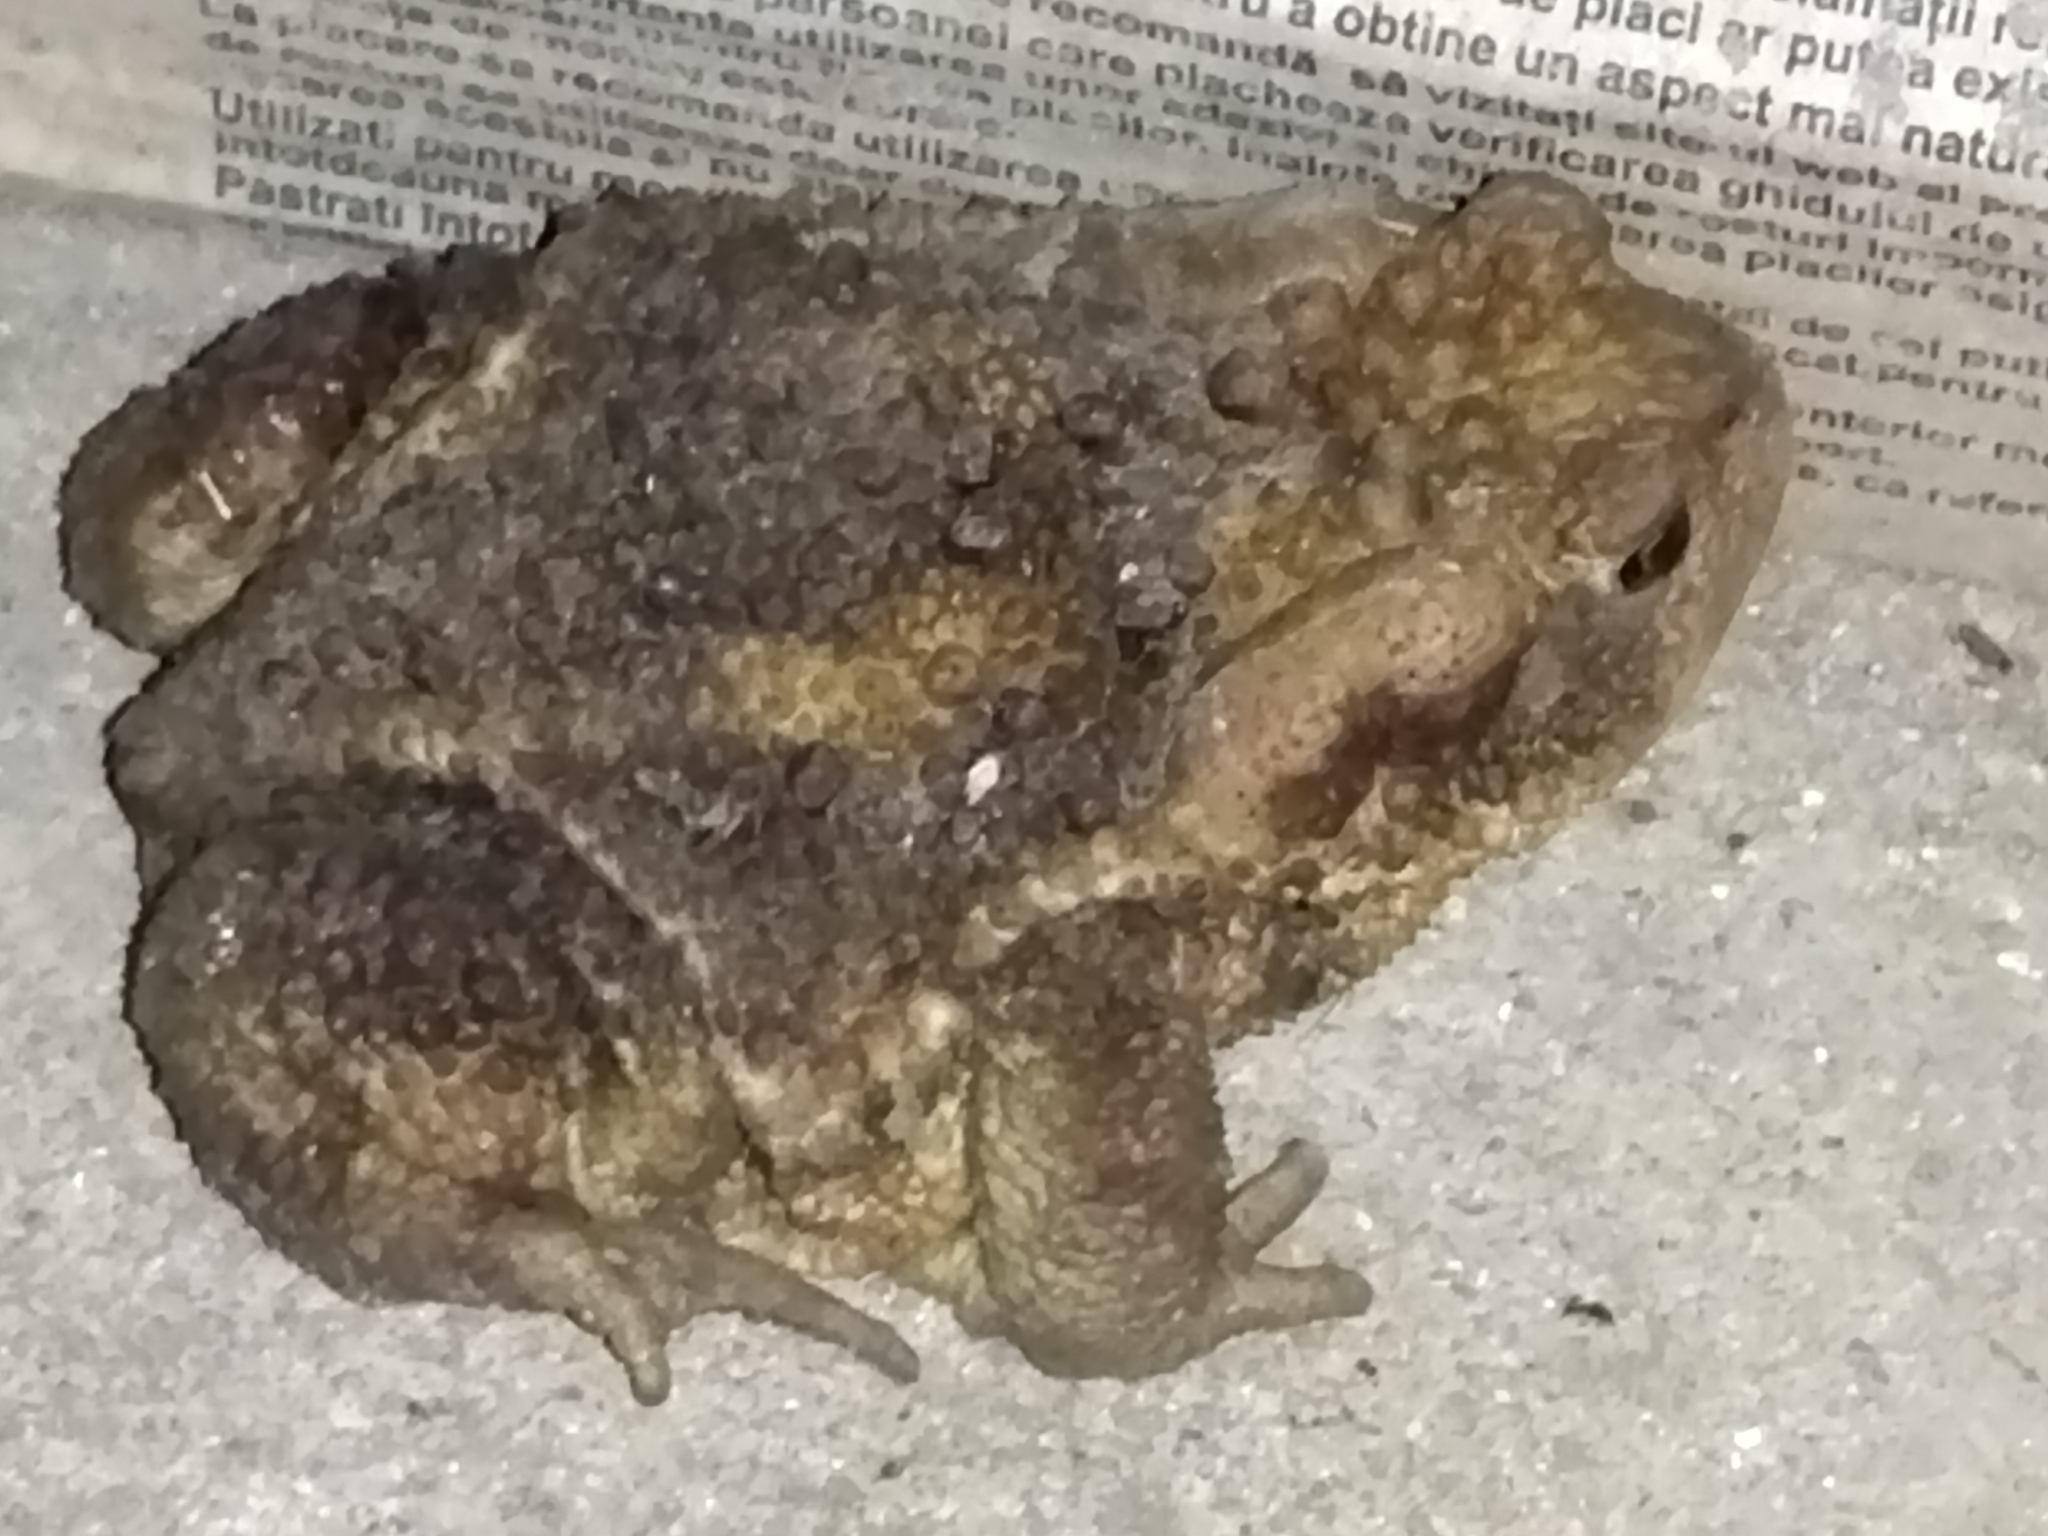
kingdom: Animalia
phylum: Chordata
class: Amphibia
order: Anura
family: Bufonidae
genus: Bufo
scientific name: Bufo bufo
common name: Common toad
